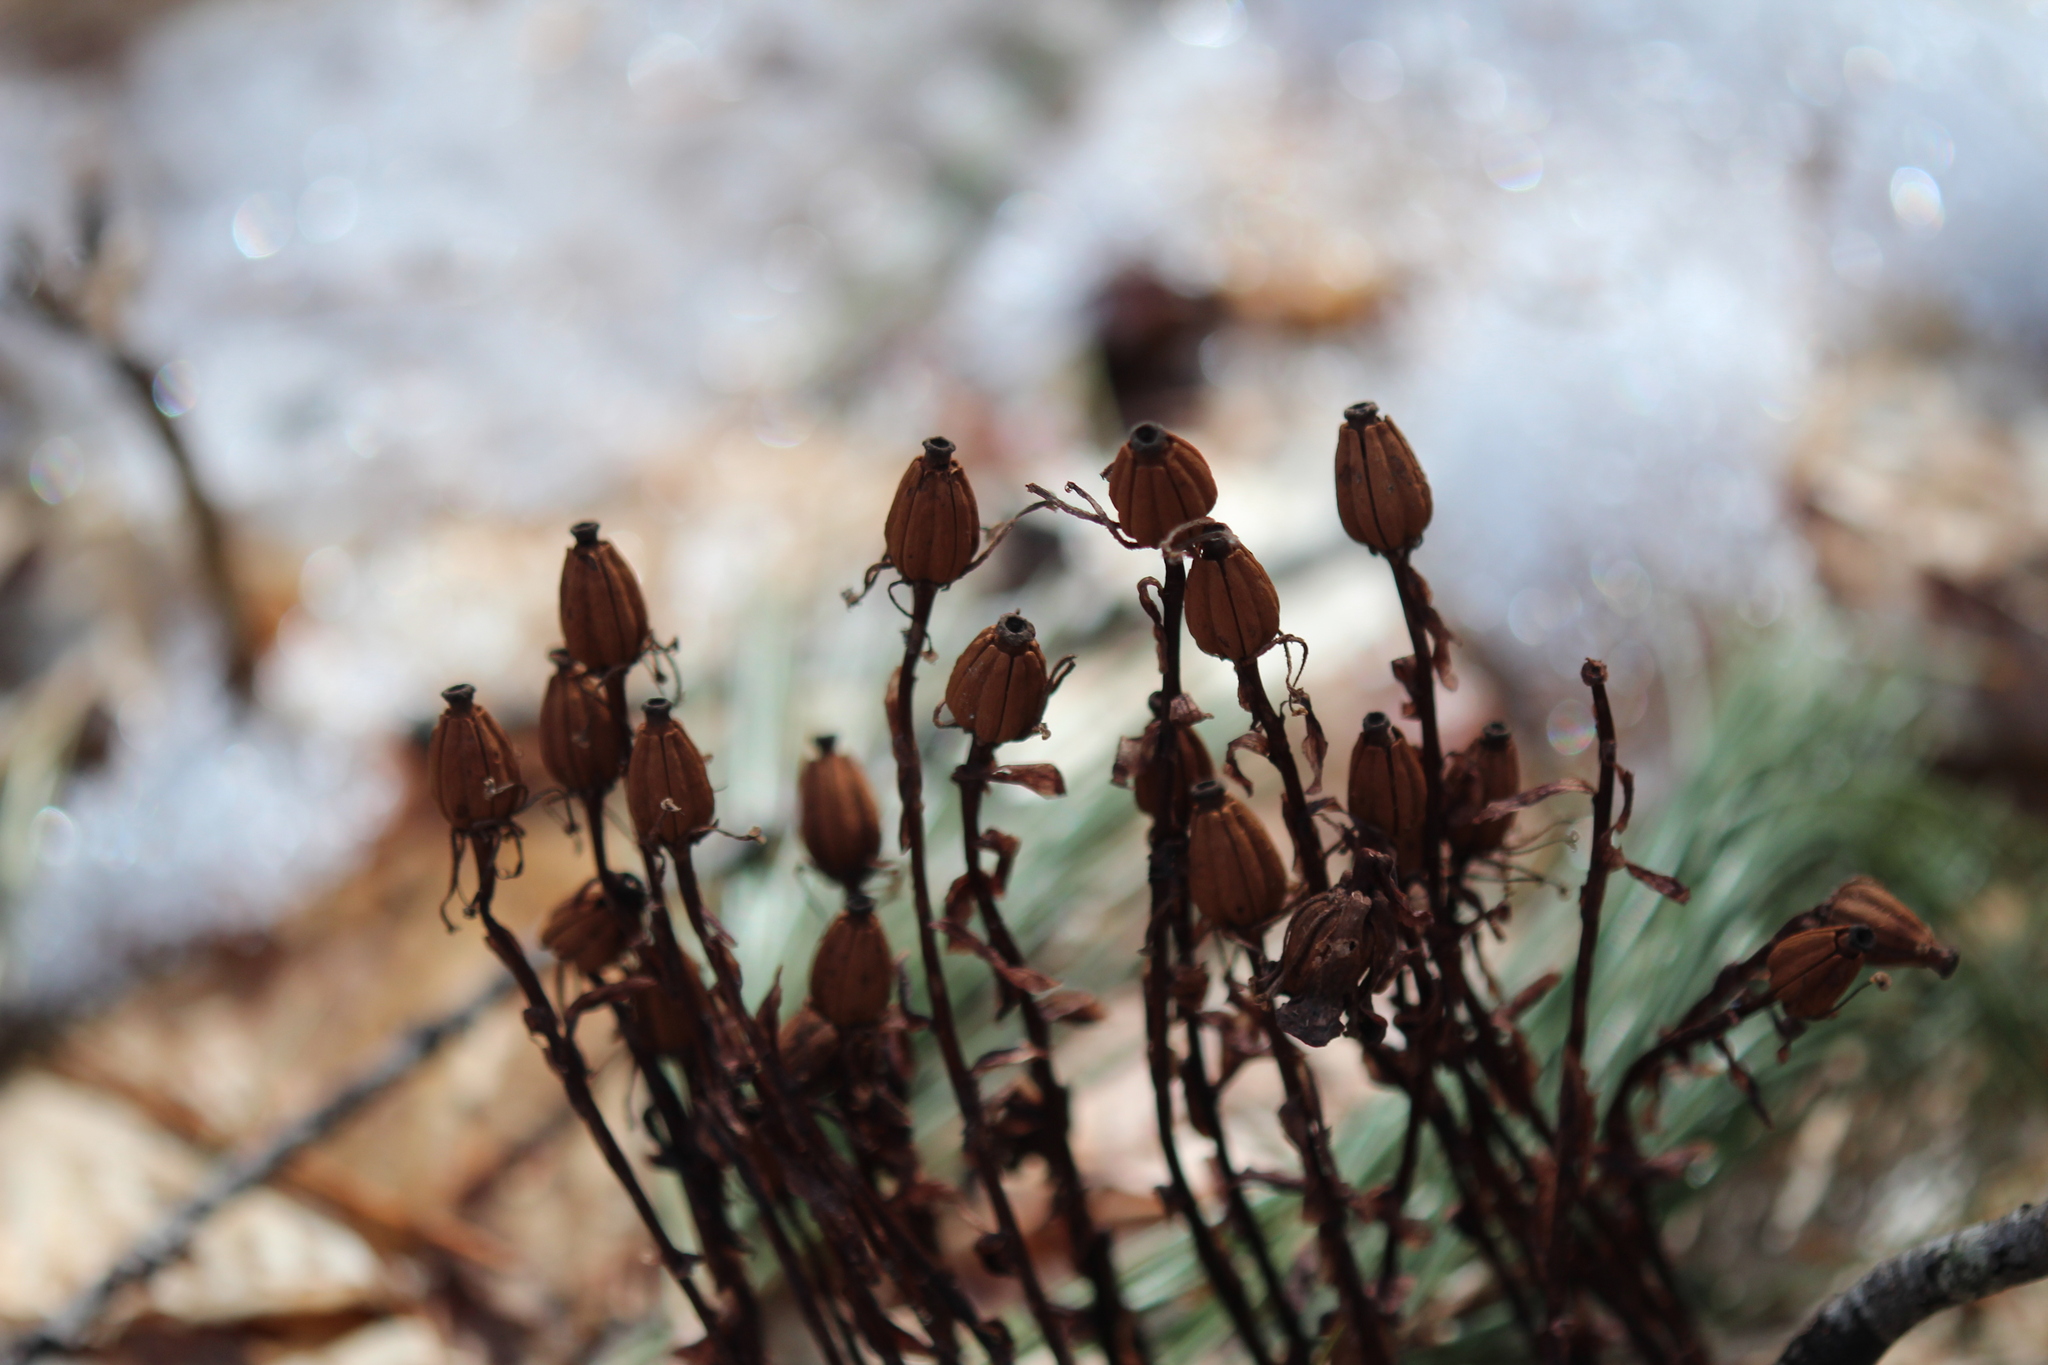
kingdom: Plantae
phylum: Tracheophyta
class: Magnoliopsida
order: Ericales
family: Ericaceae
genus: Monotropa
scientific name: Monotropa uniflora
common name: Convulsion root
